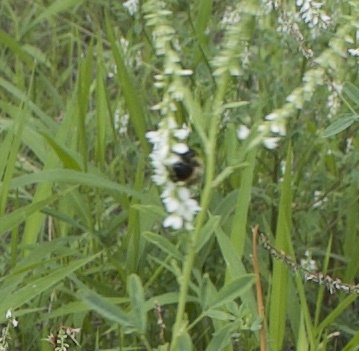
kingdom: Animalia
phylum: Arthropoda
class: Insecta
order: Hymenoptera
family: Apidae
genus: Bombus
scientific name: Bombus impatiens
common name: Common eastern bumble bee
